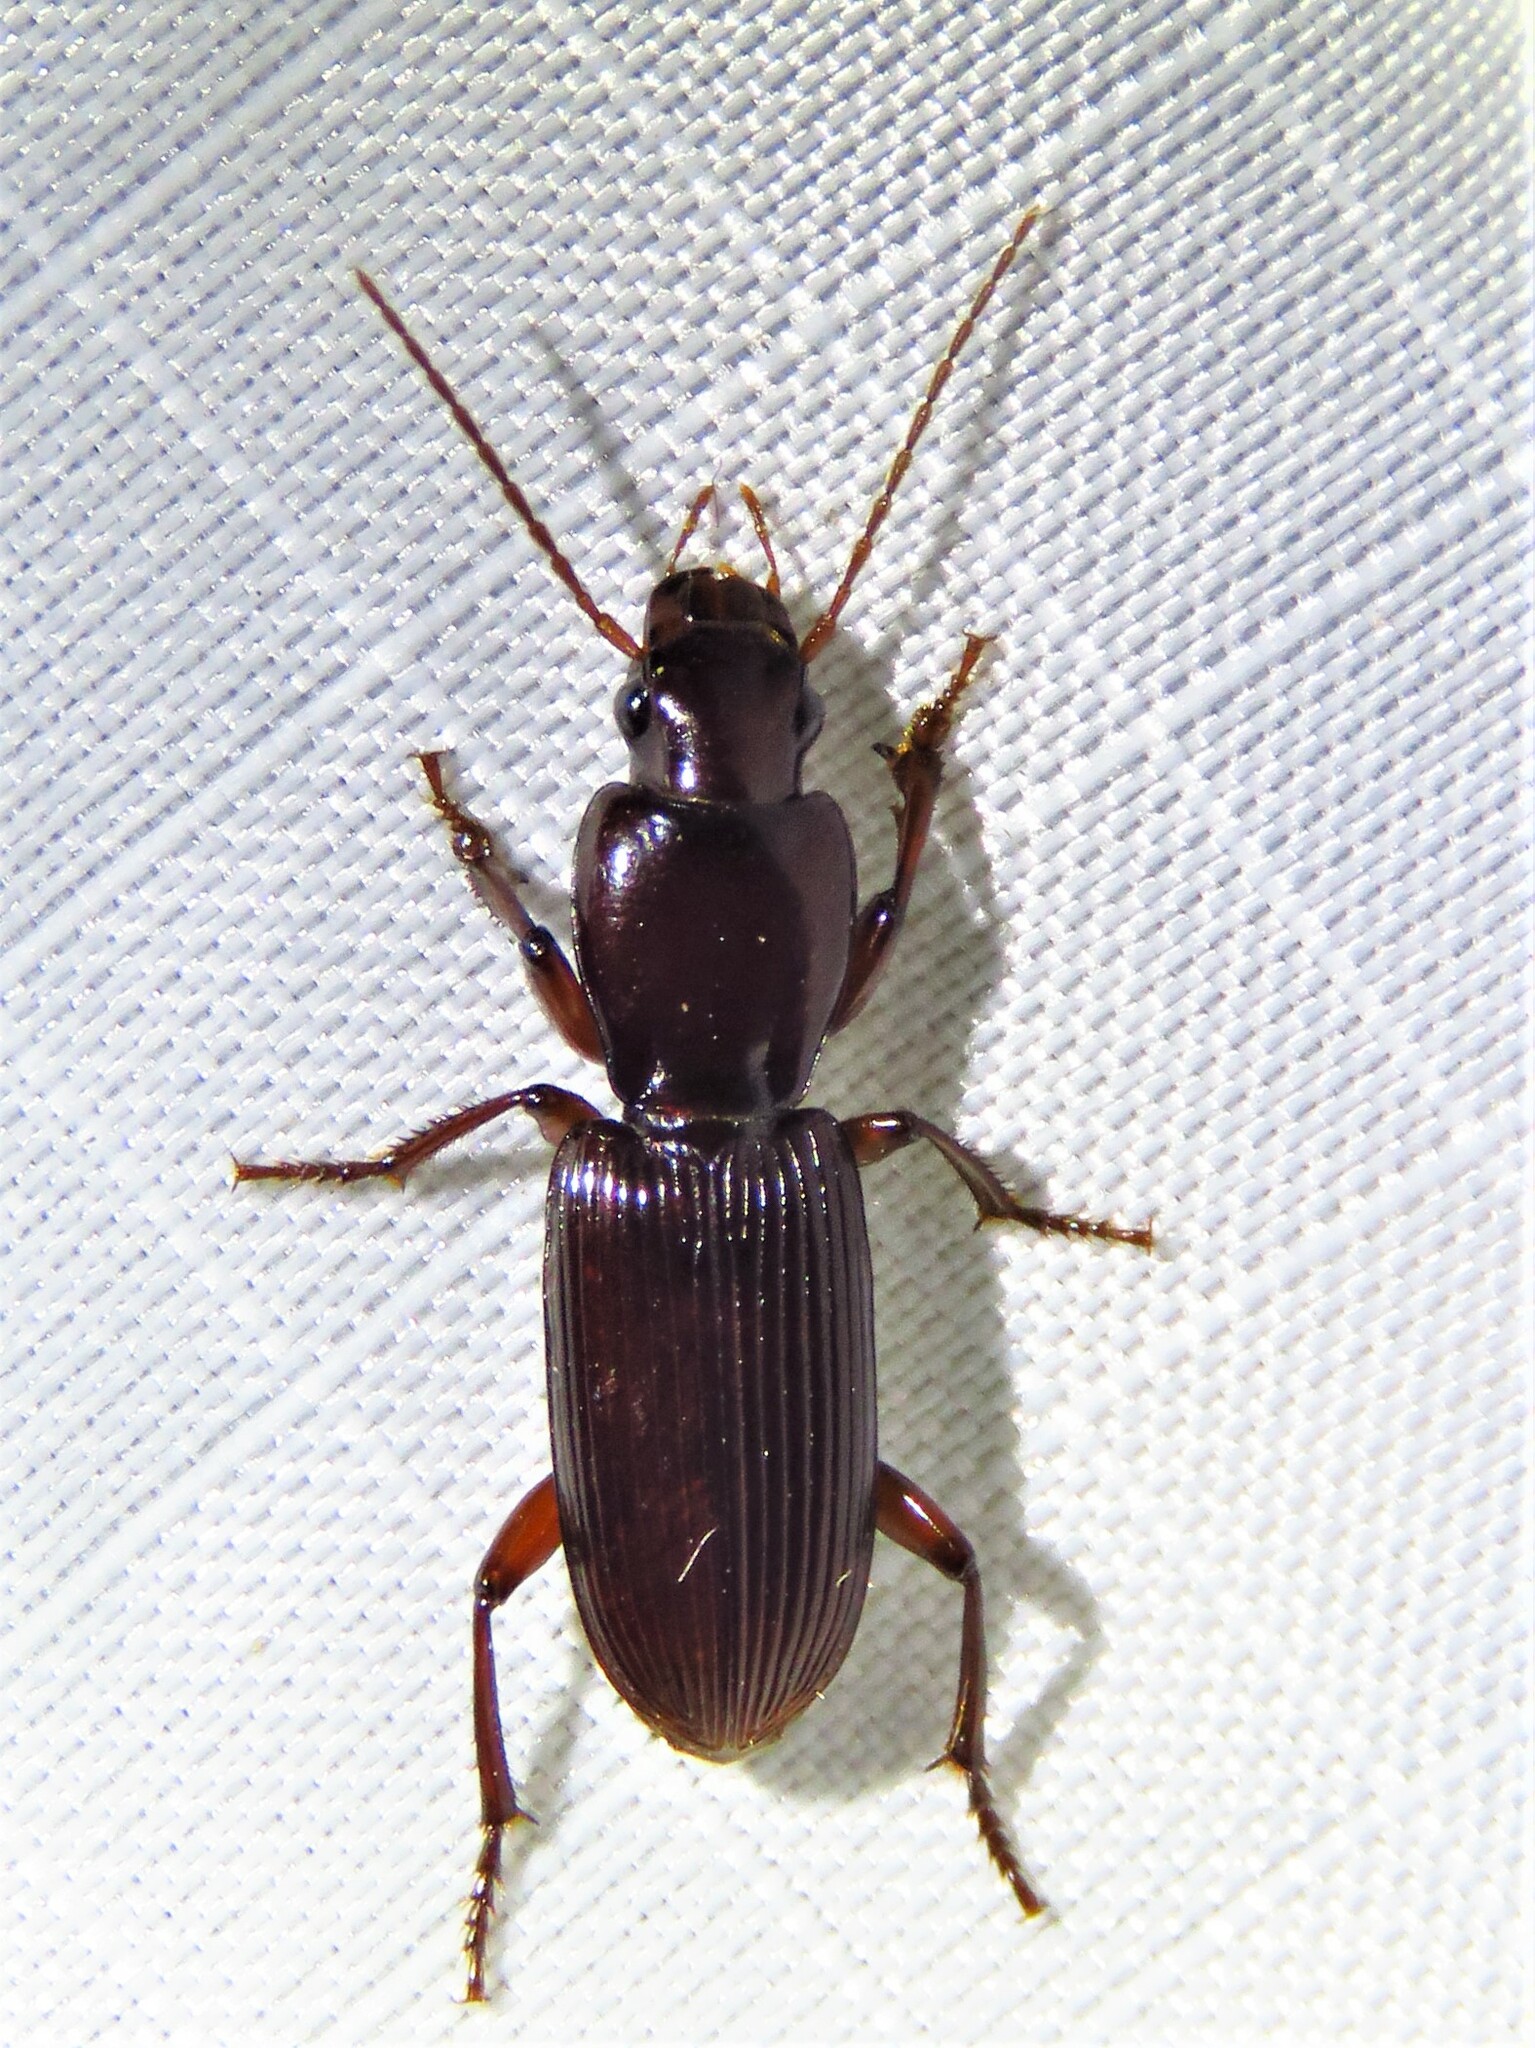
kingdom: Animalia
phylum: Arthropoda
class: Insecta
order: Coleoptera
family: Carabidae
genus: Stenomorphus
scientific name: Stenomorphus californicus
